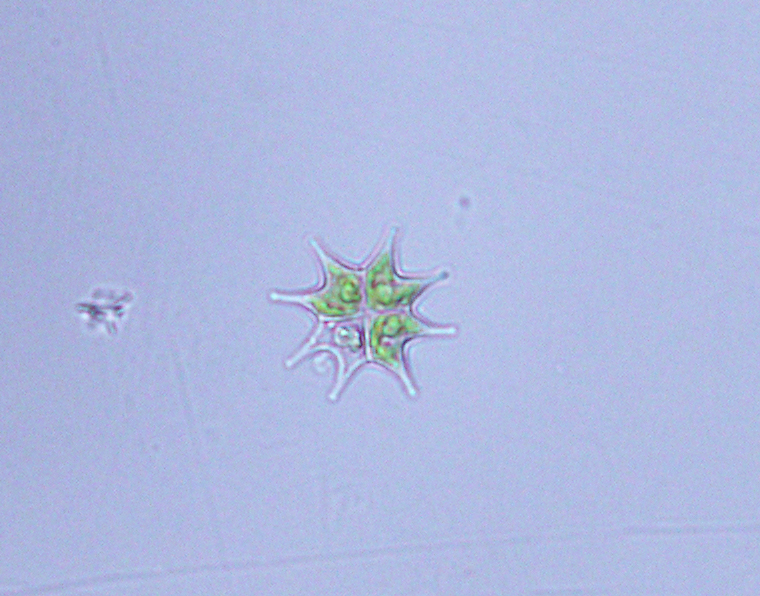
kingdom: Plantae
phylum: Chlorophyta
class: Chlorophyceae
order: Sphaeropleales
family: Hydrodictyaceae
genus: Pseudopediastrum
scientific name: Pseudopediastrum boryanum
